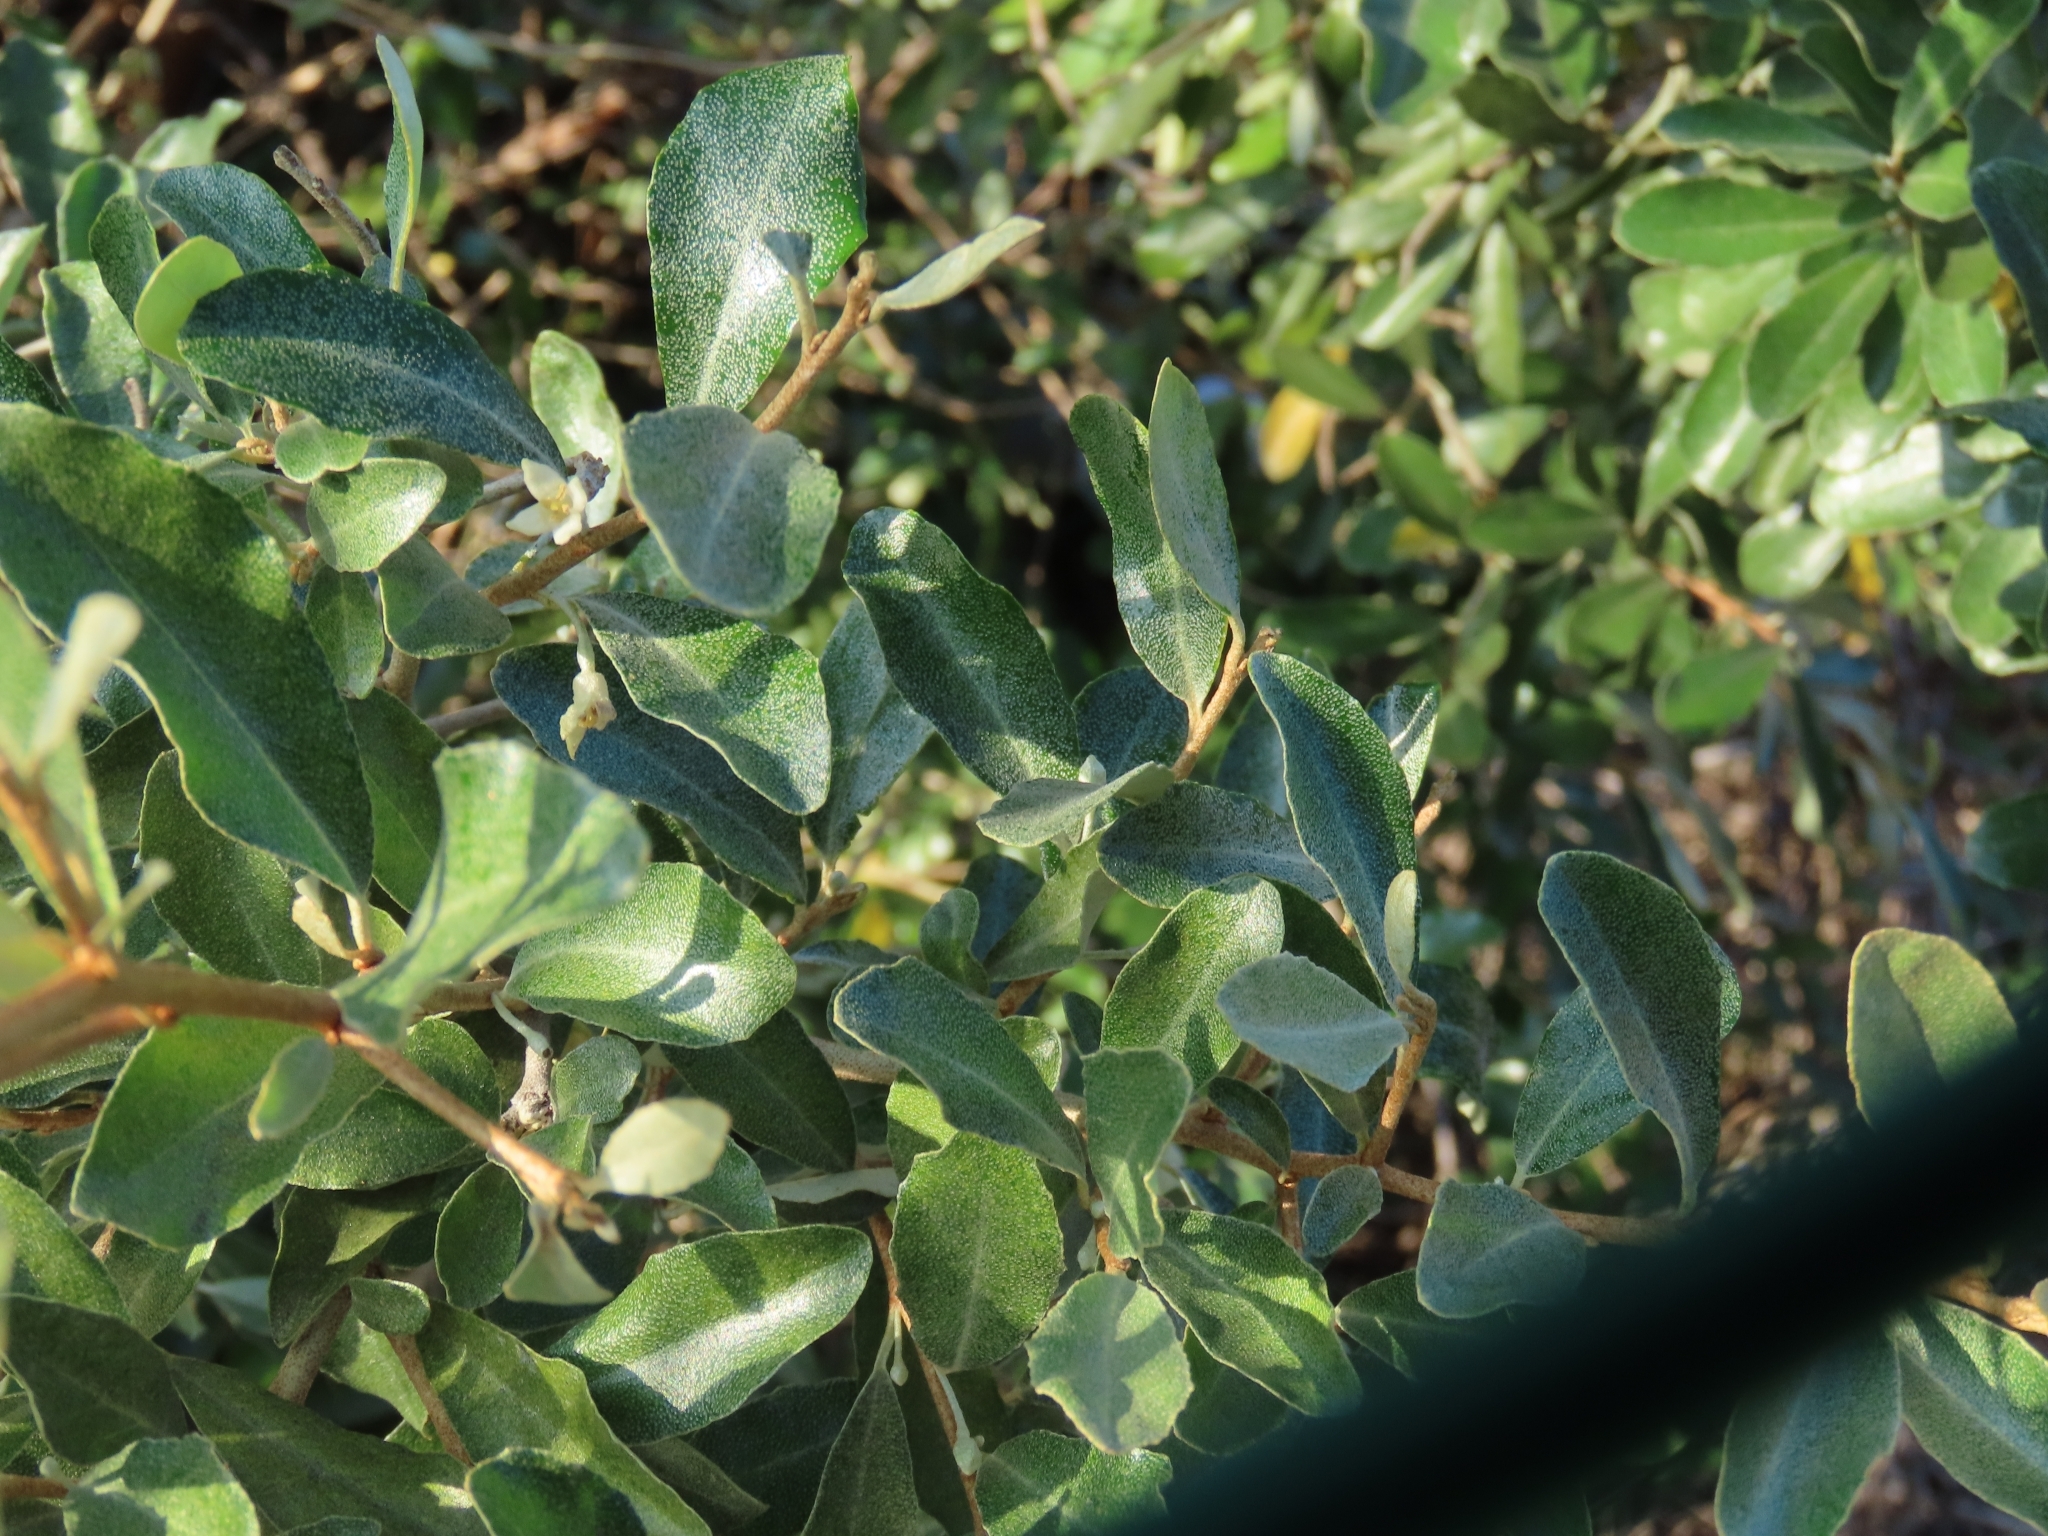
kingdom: Plantae
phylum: Tracheophyta
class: Magnoliopsida
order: Rosales
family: Elaeagnaceae
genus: Elaeagnus
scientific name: Elaeagnus oldhamii
